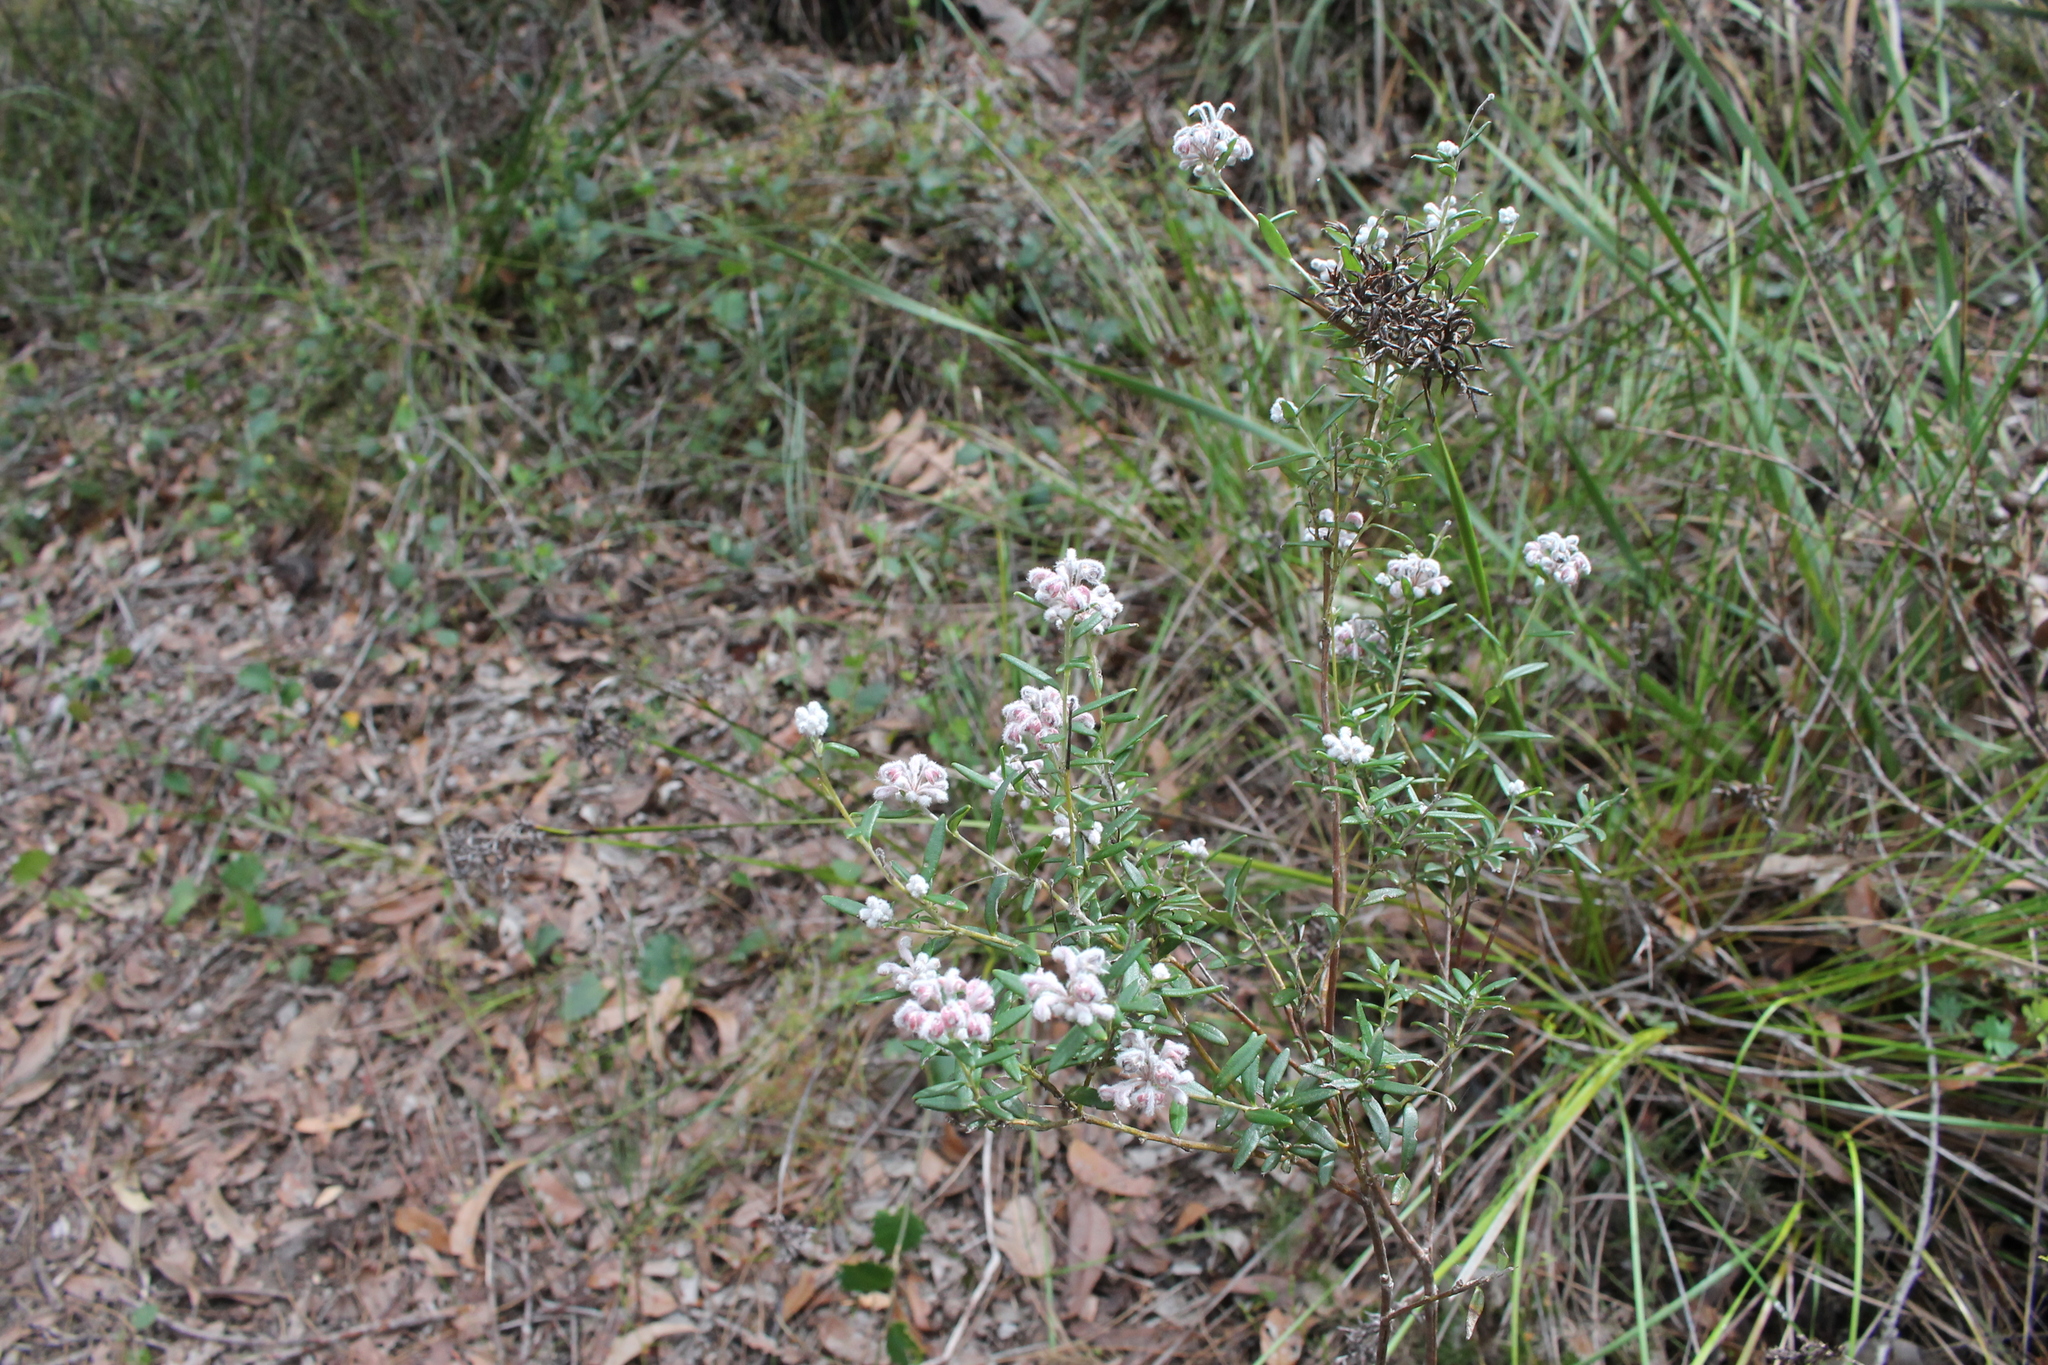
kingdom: Plantae
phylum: Tracheophyta
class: Magnoliopsida
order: Proteales
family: Proteaceae
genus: Grevillea
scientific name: Grevillea occidentalis
